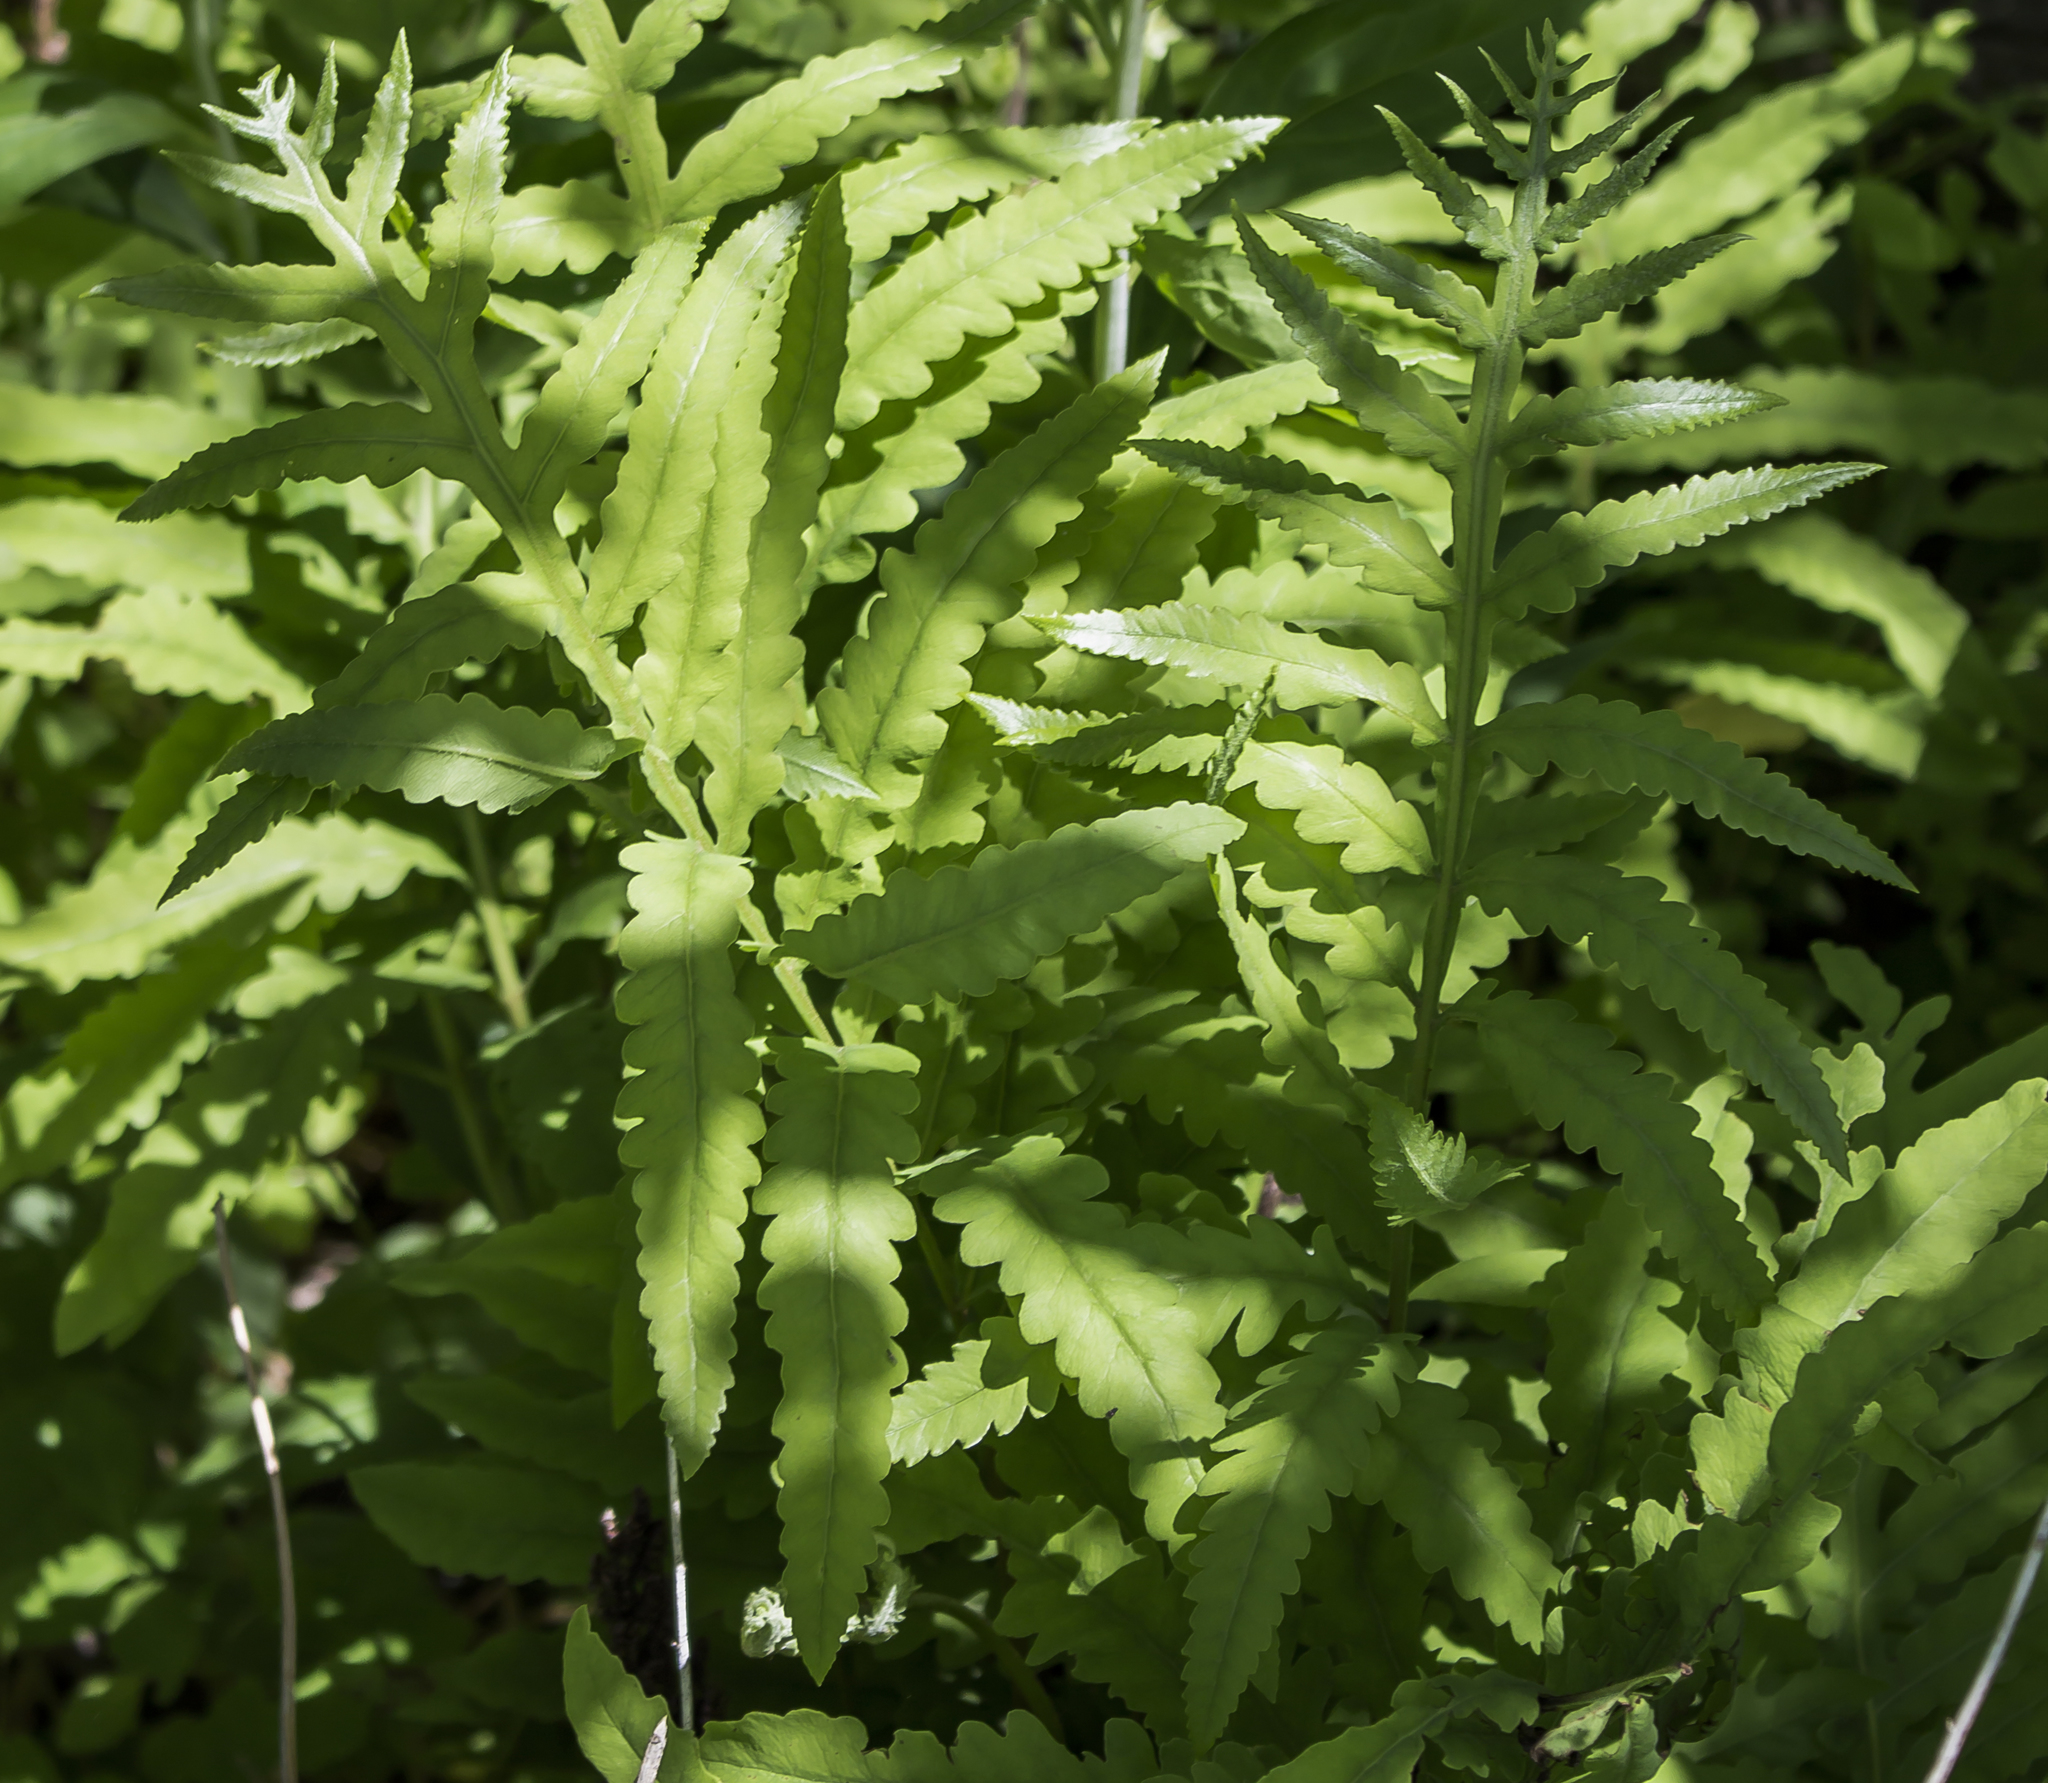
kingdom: Plantae
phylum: Tracheophyta
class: Polypodiopsida
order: Polypodiales
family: Onocleaceae
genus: Onoclea
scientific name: Onoclea sensibilis
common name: Sensitive fern
